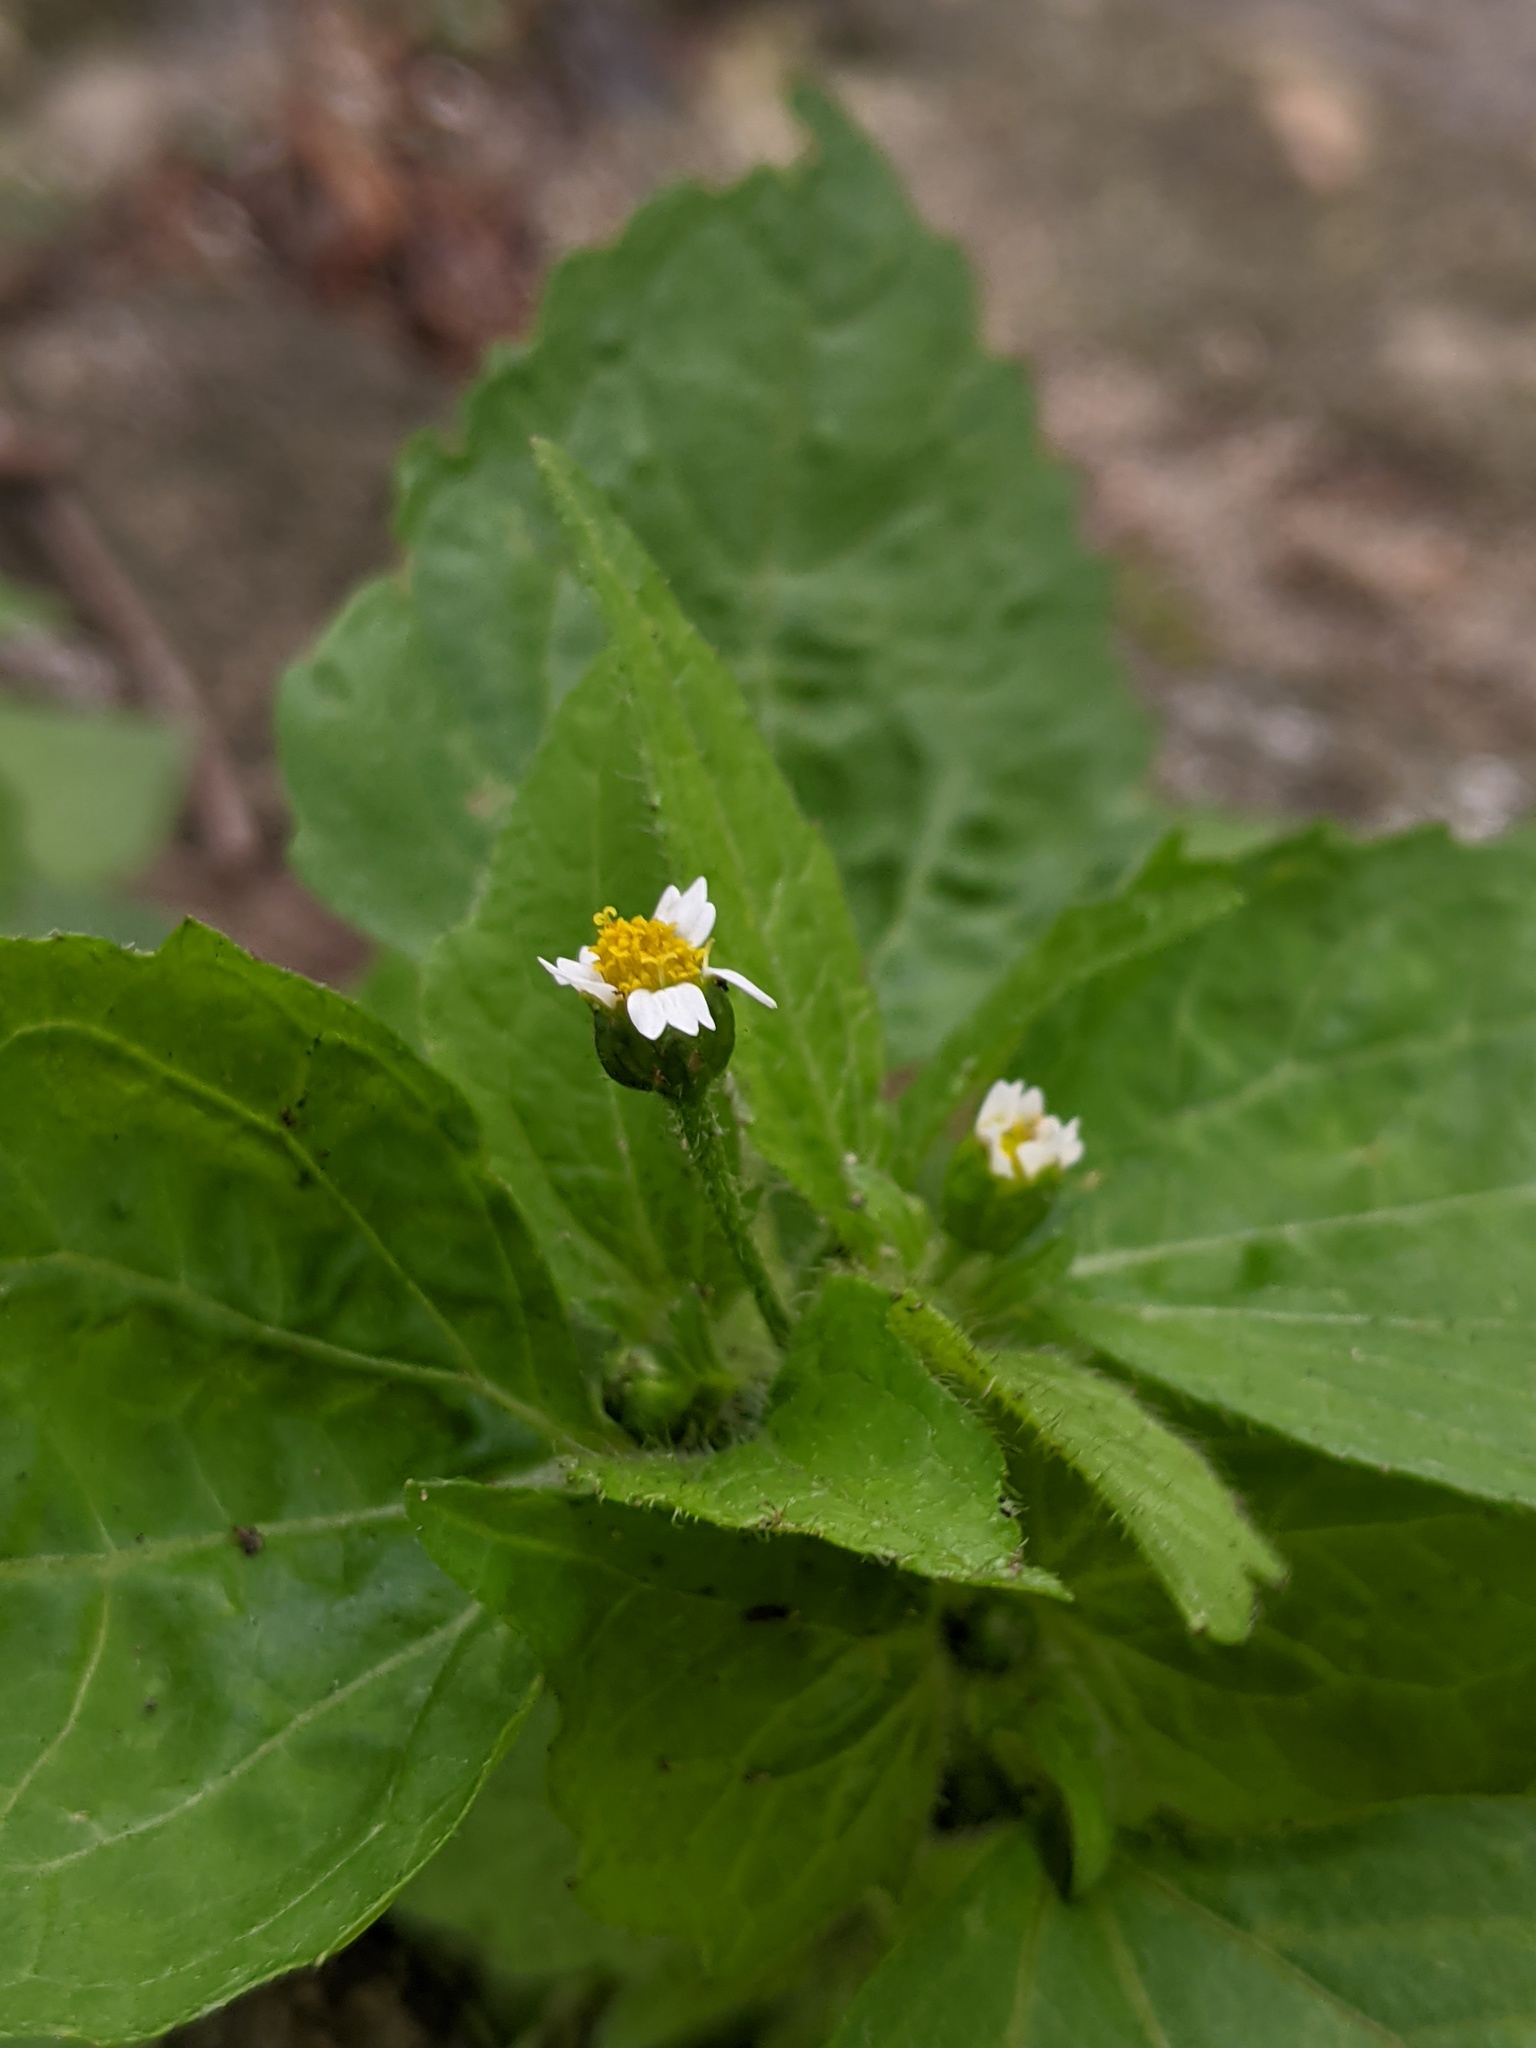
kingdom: Plantae
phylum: Tracheophyta
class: Magnoliopsida
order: Asterales
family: Asteraceae
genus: Galinsoga
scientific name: Galinsoga quadriradiata
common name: Shaggy soldier
